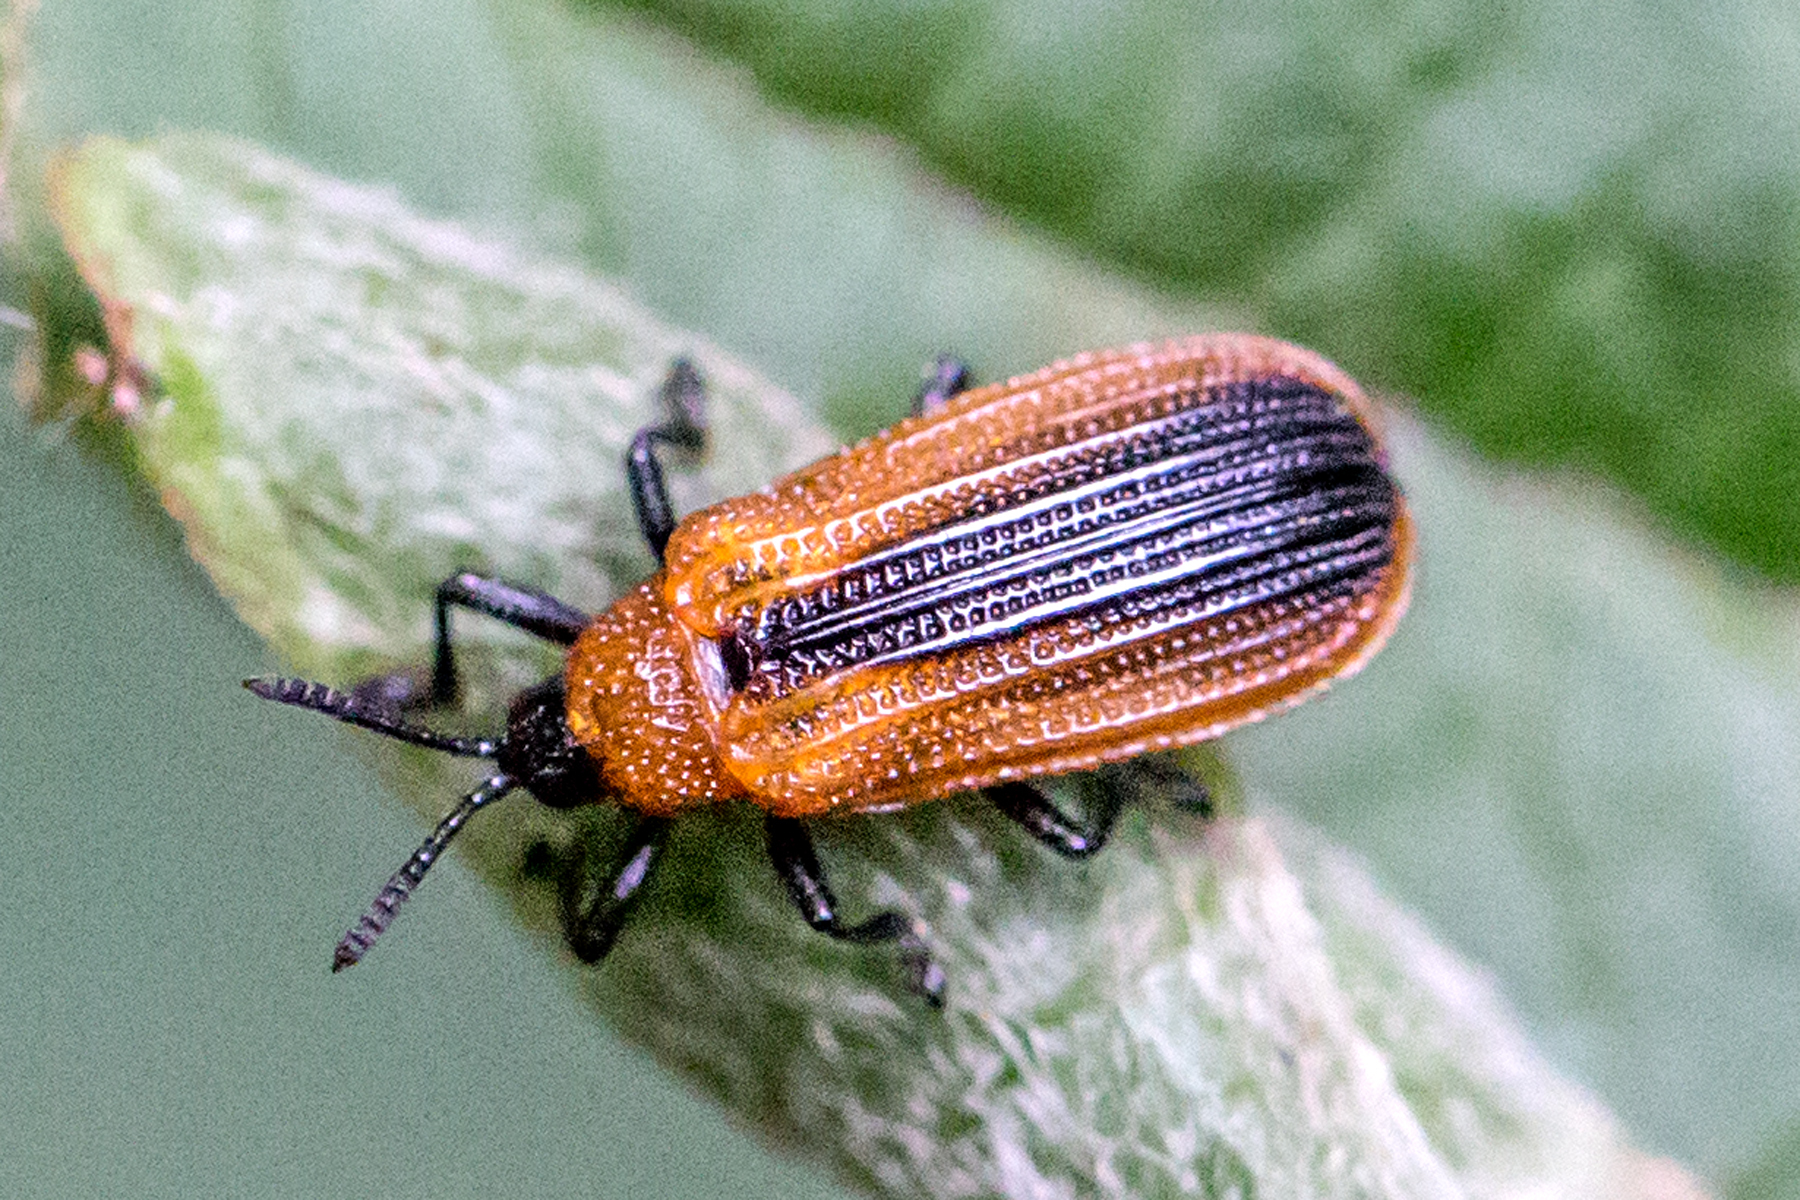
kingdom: Animalia
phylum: Arthropoda
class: Insecta
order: Coleoptera
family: Chrysomelidae
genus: Odontota
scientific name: Odontota dorsalis
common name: Locust leaf-miner beetle
